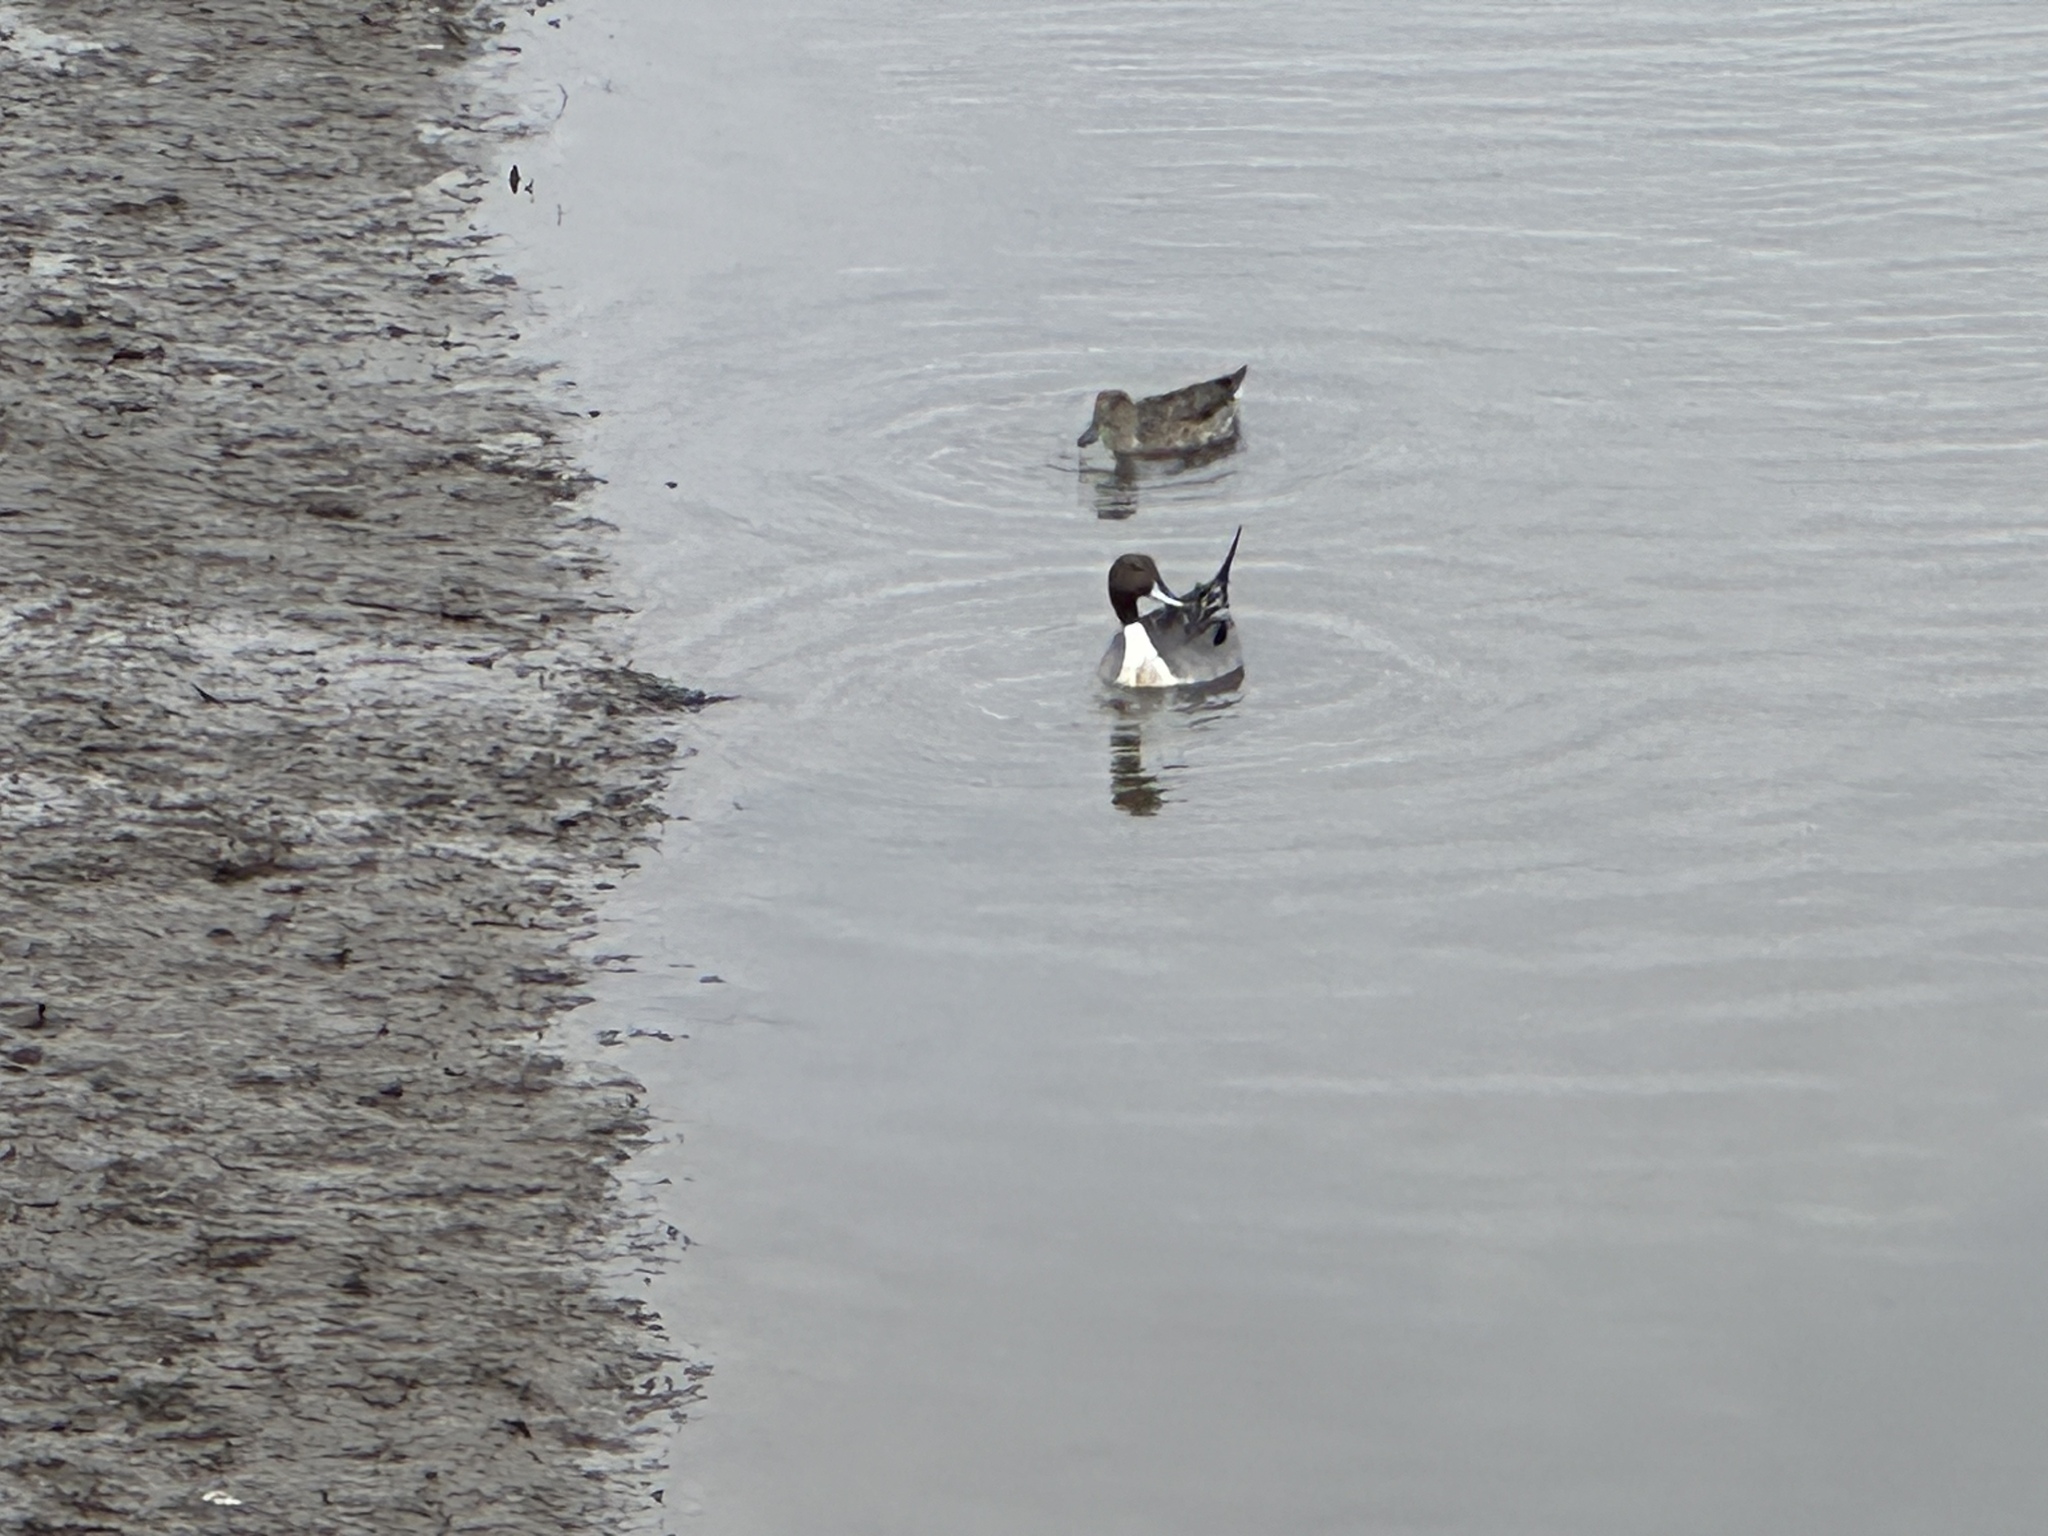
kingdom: Animalia
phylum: Chordata
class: Aves
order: Anseriformes
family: Anatidae
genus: Anas
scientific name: Anas acuta
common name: Northern pintail
